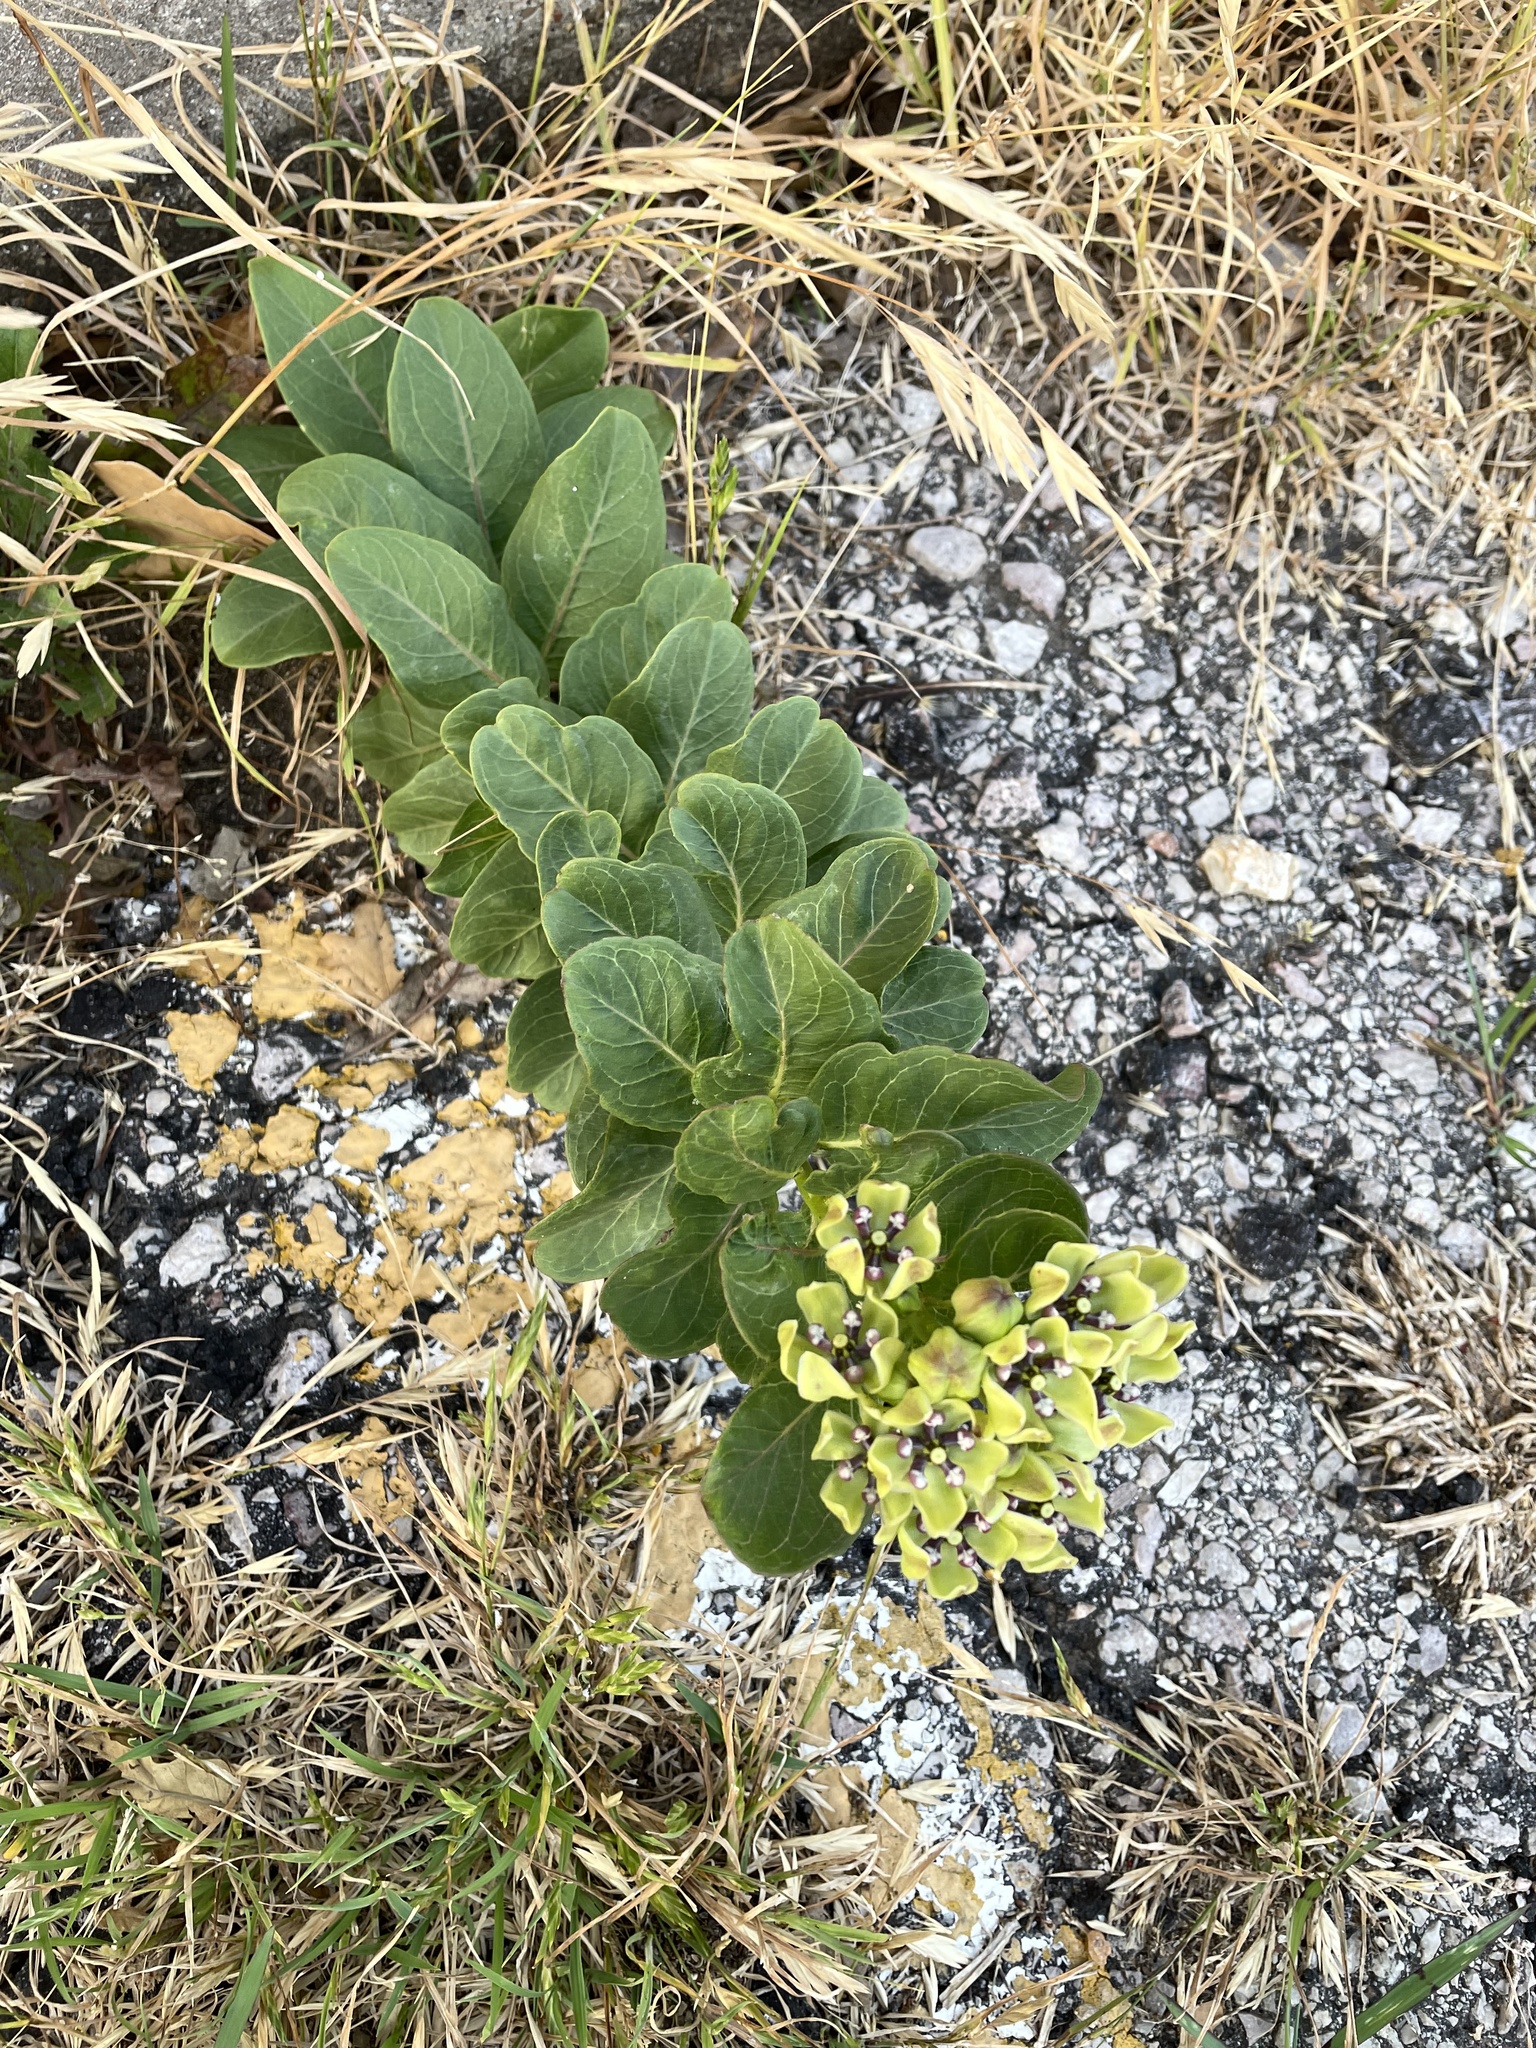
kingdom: Plantae
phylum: Tracheophyta
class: Magnoliopsida
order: Gentianales
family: Apocynaceae
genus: Asclepias
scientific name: Asclepias viridis
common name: Antelope-horns
